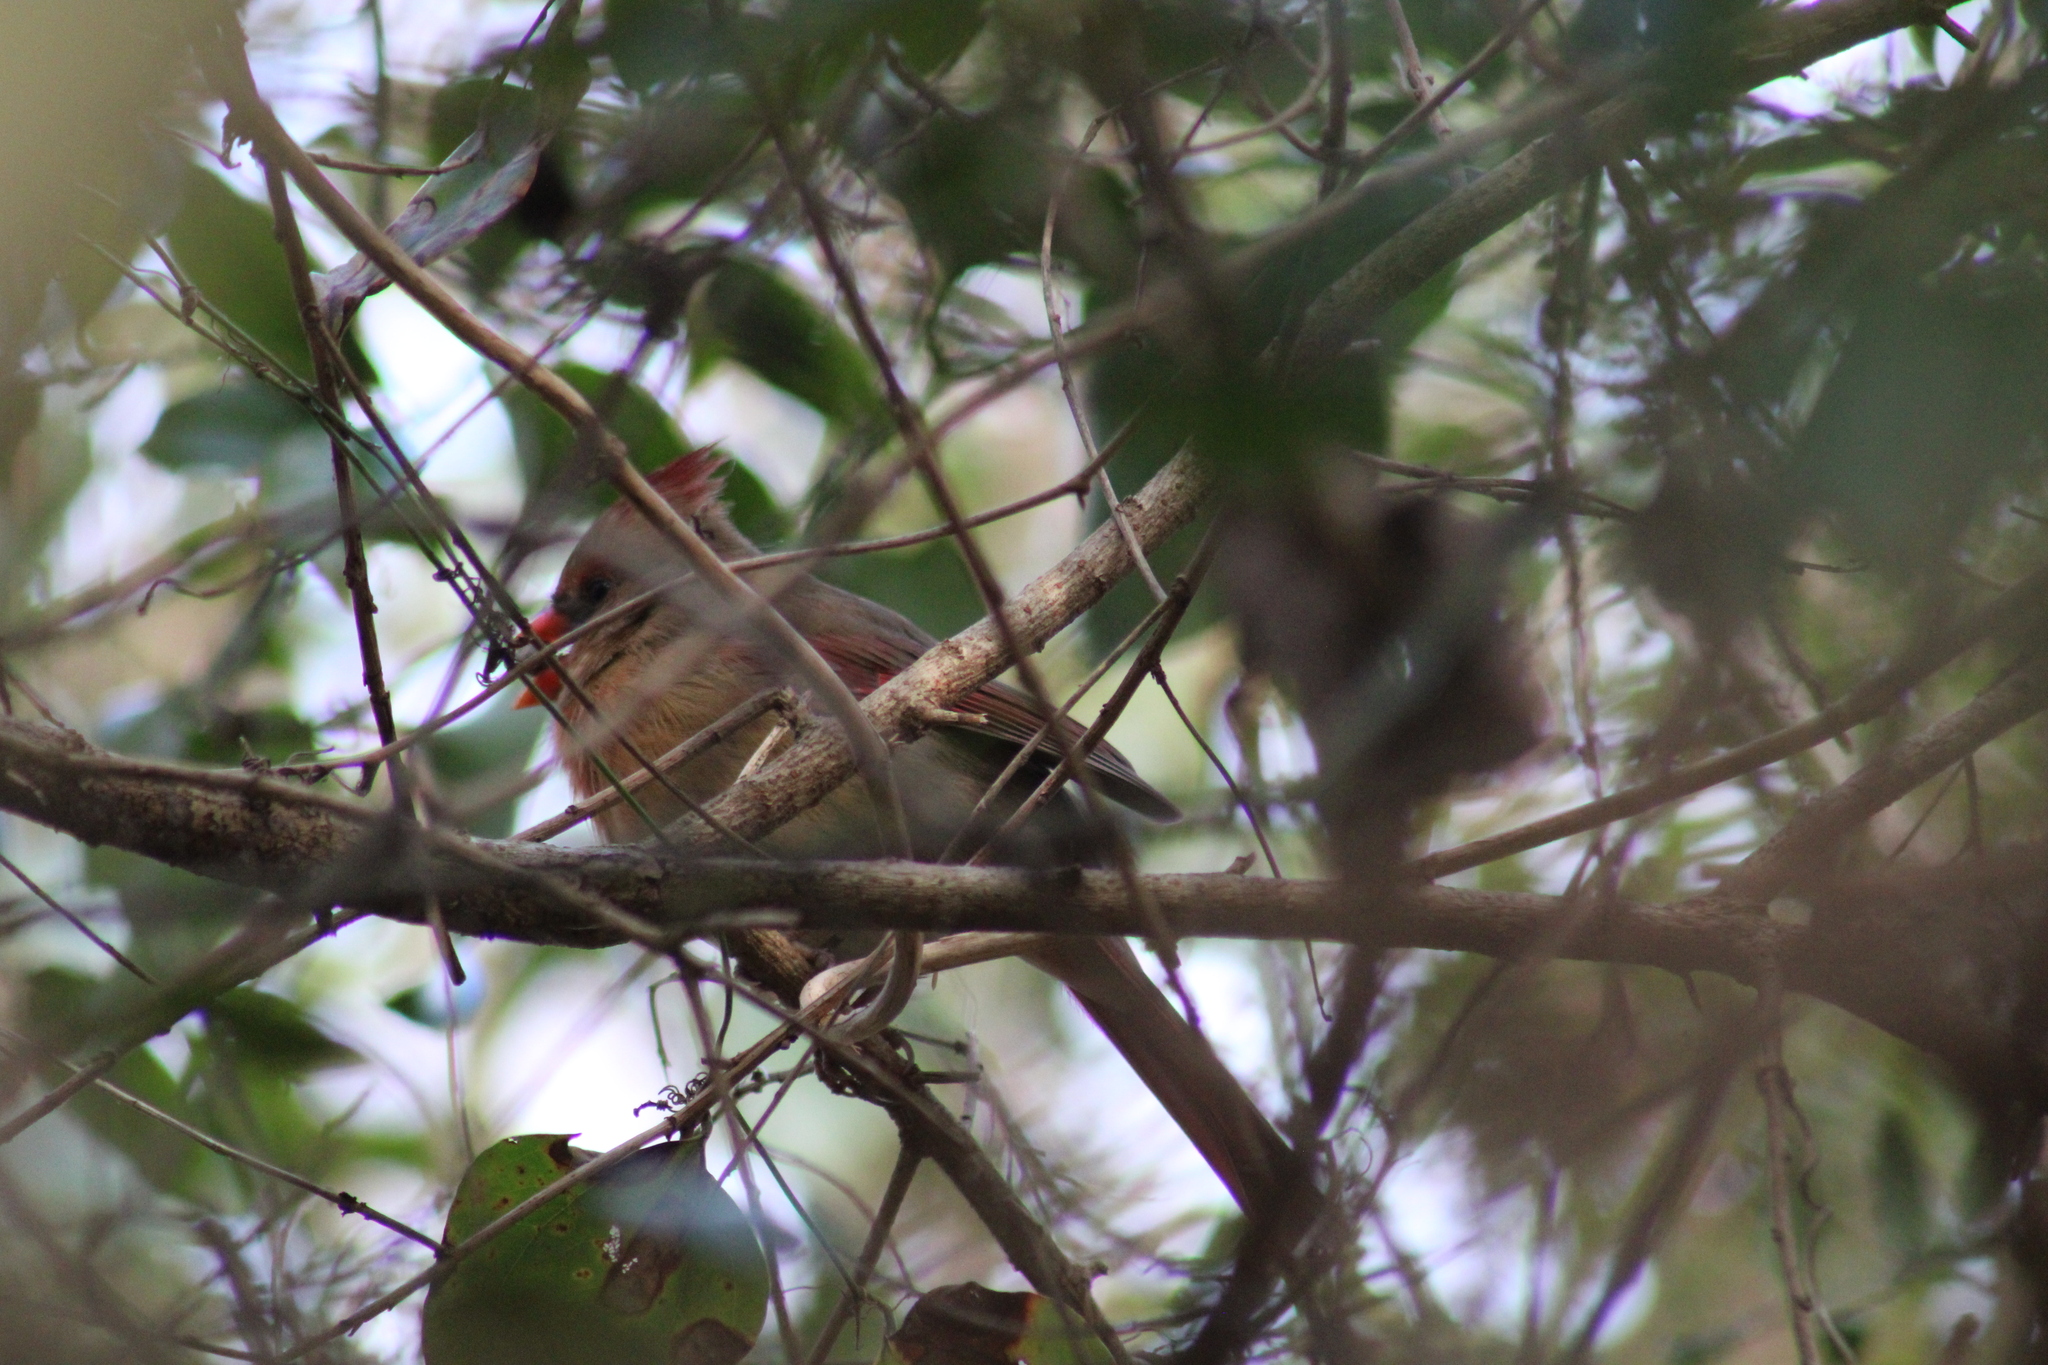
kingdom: Animalia
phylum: Chordata
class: Aves
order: Passeriformes
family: Cardinalidae
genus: Cardinalis
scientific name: Cardinalis cardinalis
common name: Northern cardinal
